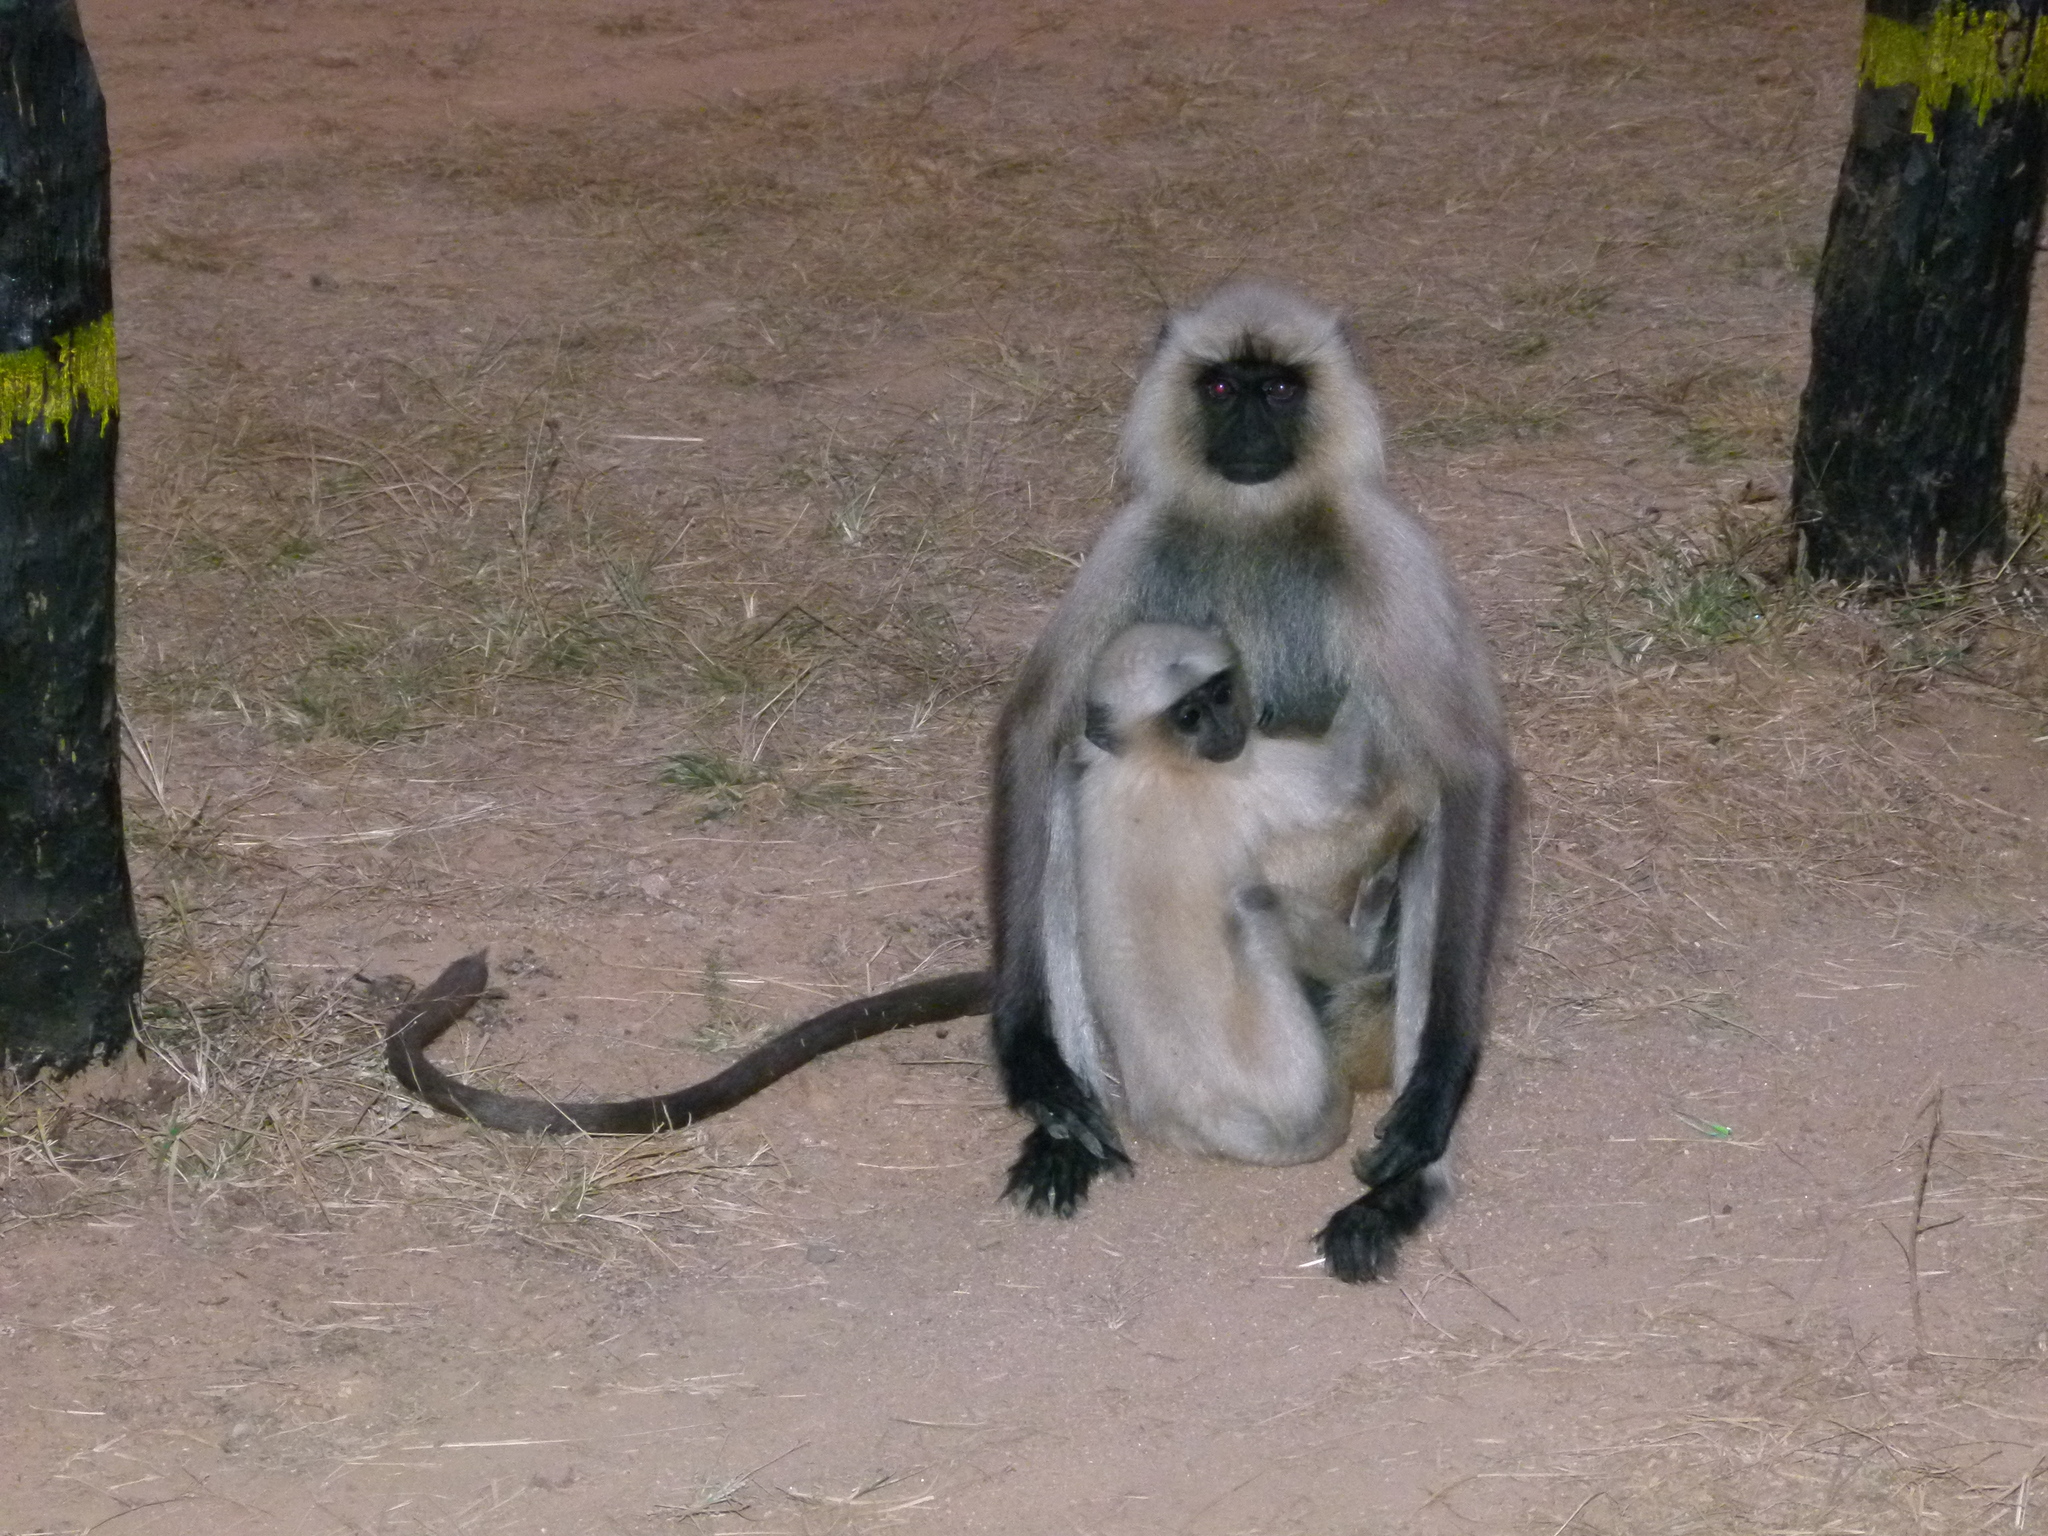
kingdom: Animalia
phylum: Chordata
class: Mammalia
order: Primates
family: Cercopithecidae
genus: Semnopithecus
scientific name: Semnopithecus entellus
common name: Northern plains gray langur
